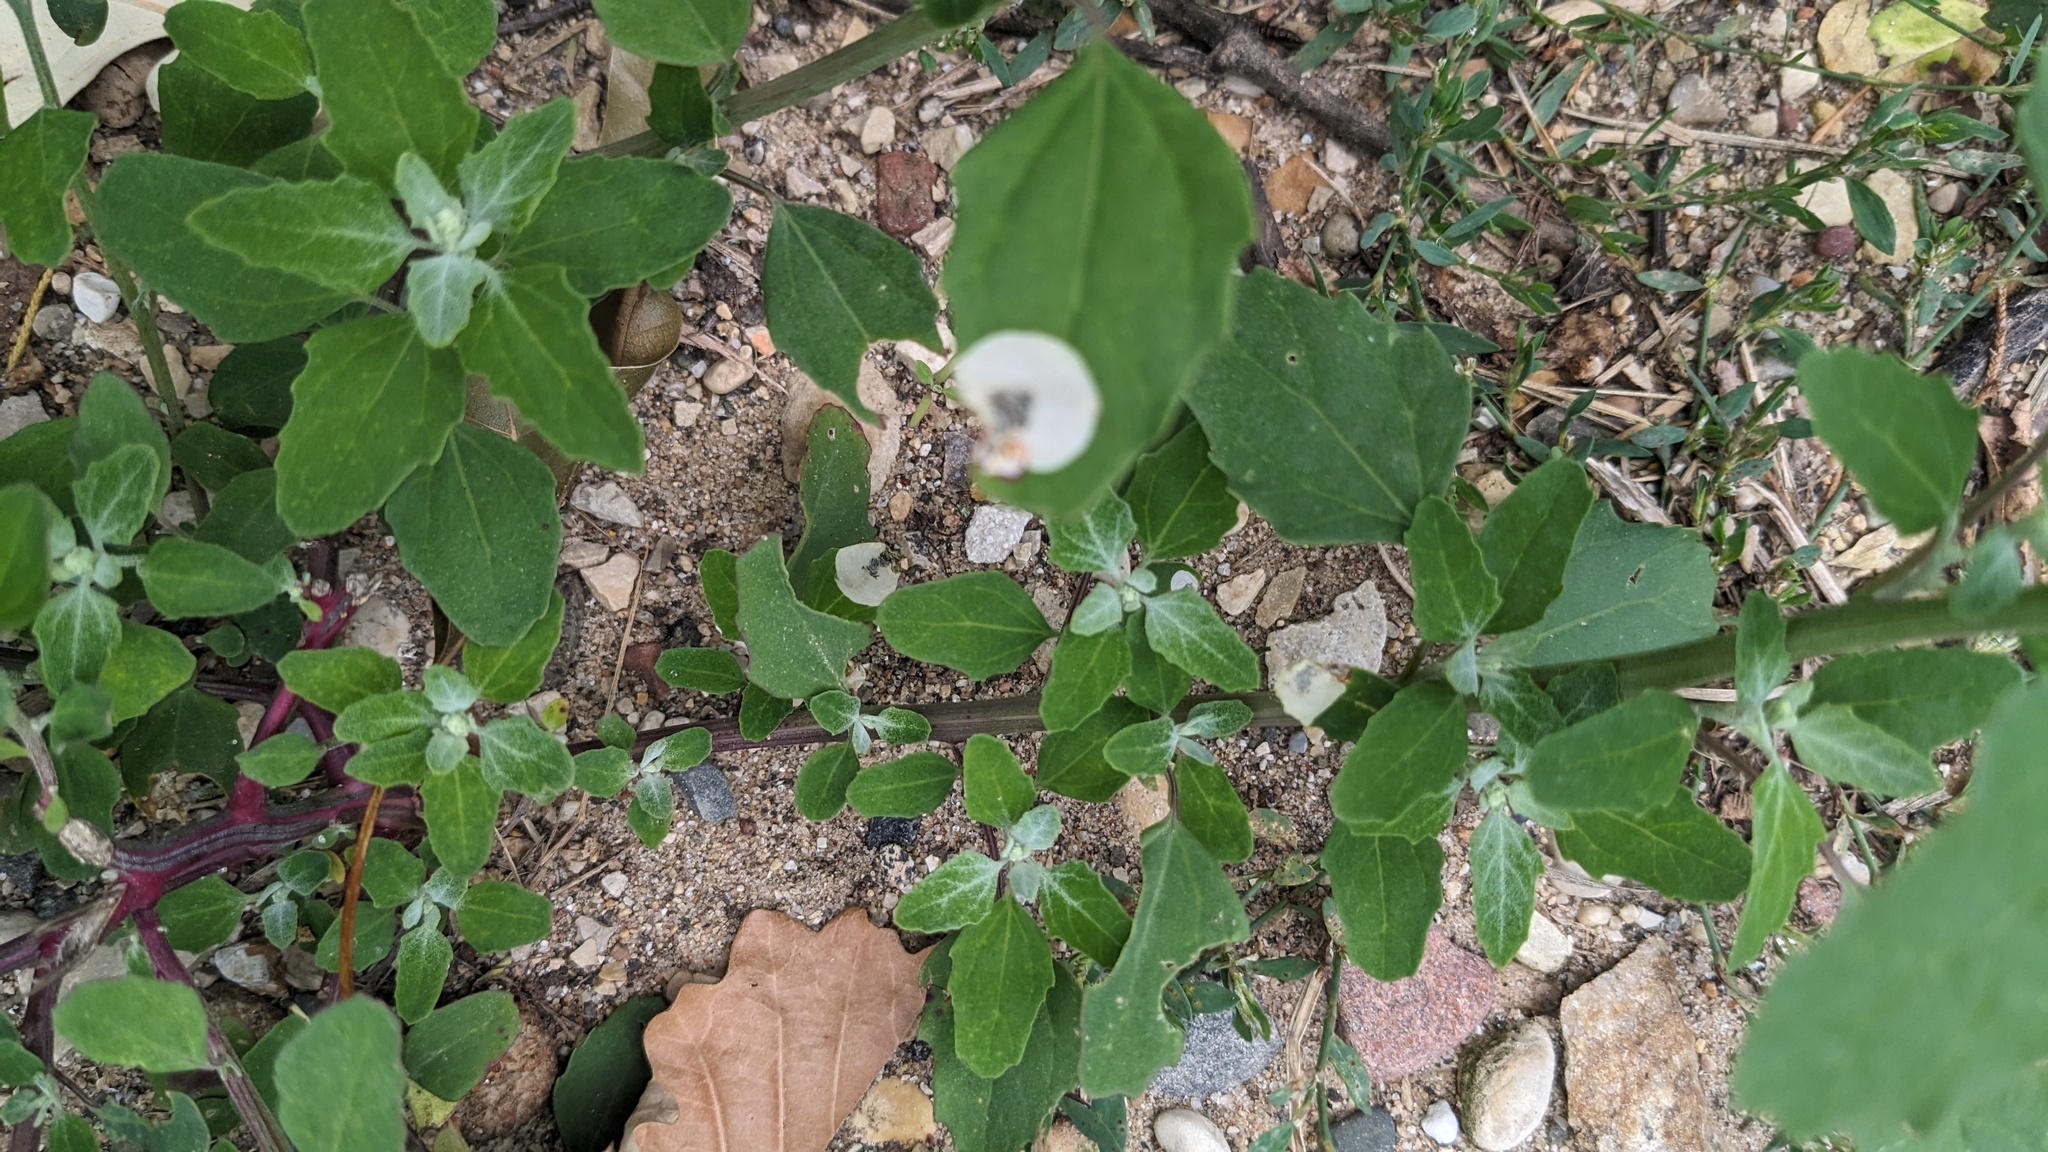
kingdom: Animalia
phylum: Arthropoda
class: Insecta
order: Lepidoptera
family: Gelechiidae
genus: Chrysoesthia
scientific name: Chrysoesthia sexguttella
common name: Moth
